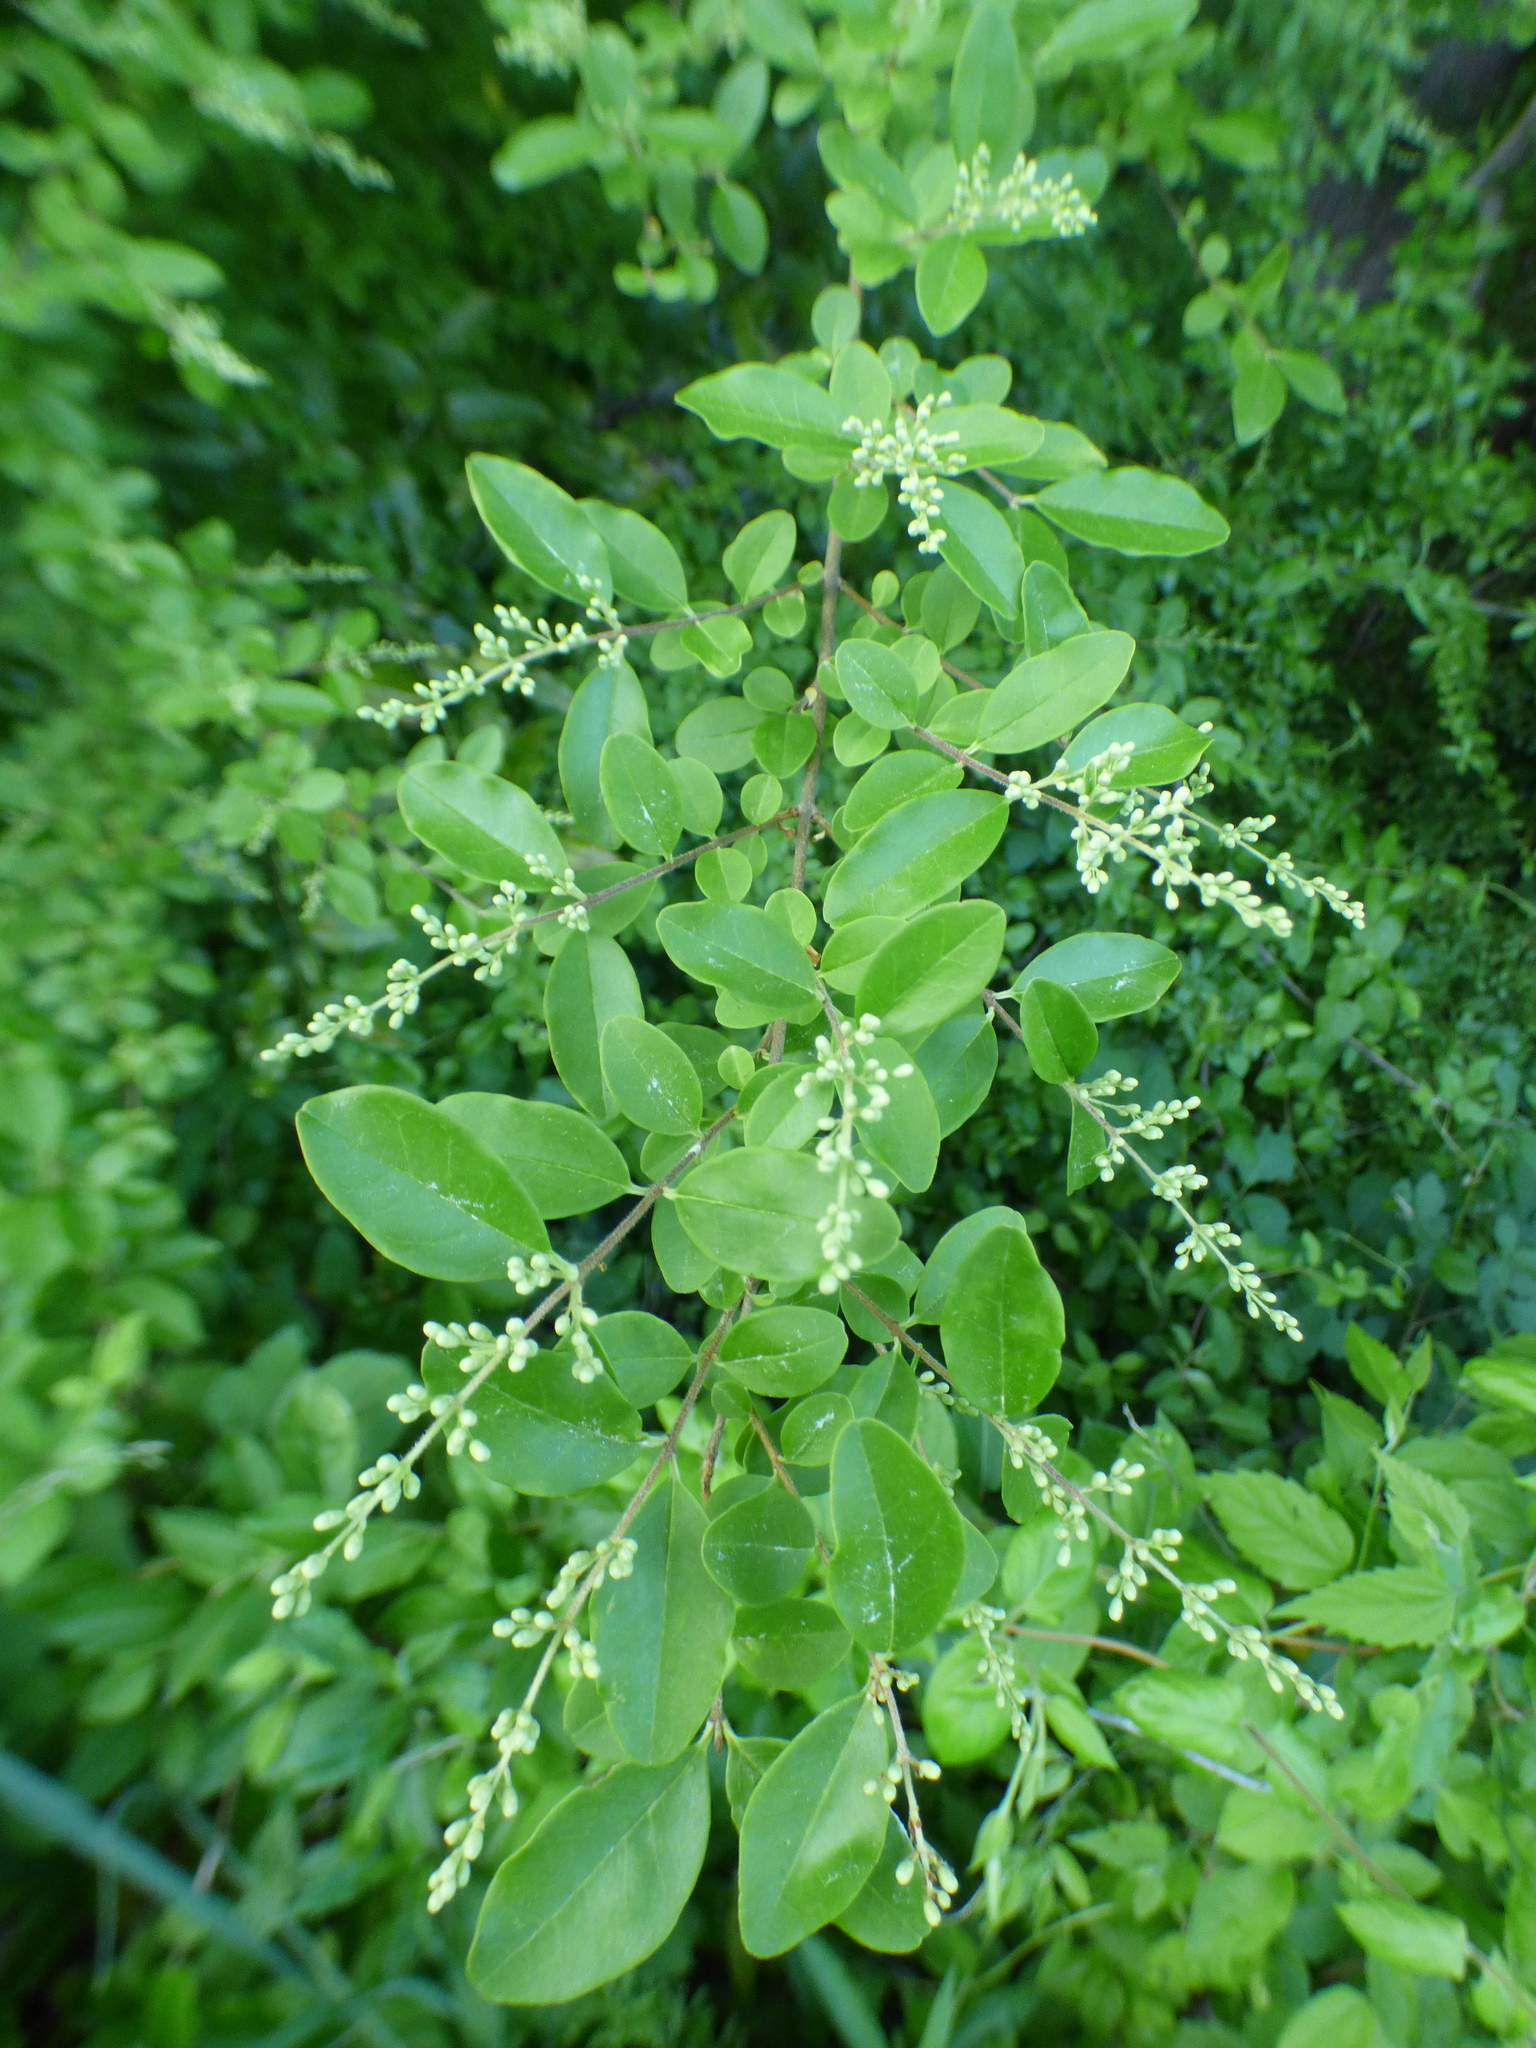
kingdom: Plantae
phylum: Tracheophyta
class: Magnoliopsida
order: Lamiales
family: Oleaceae
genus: Ligustrum
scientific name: Ligustrum sinense
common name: Chinese privet
